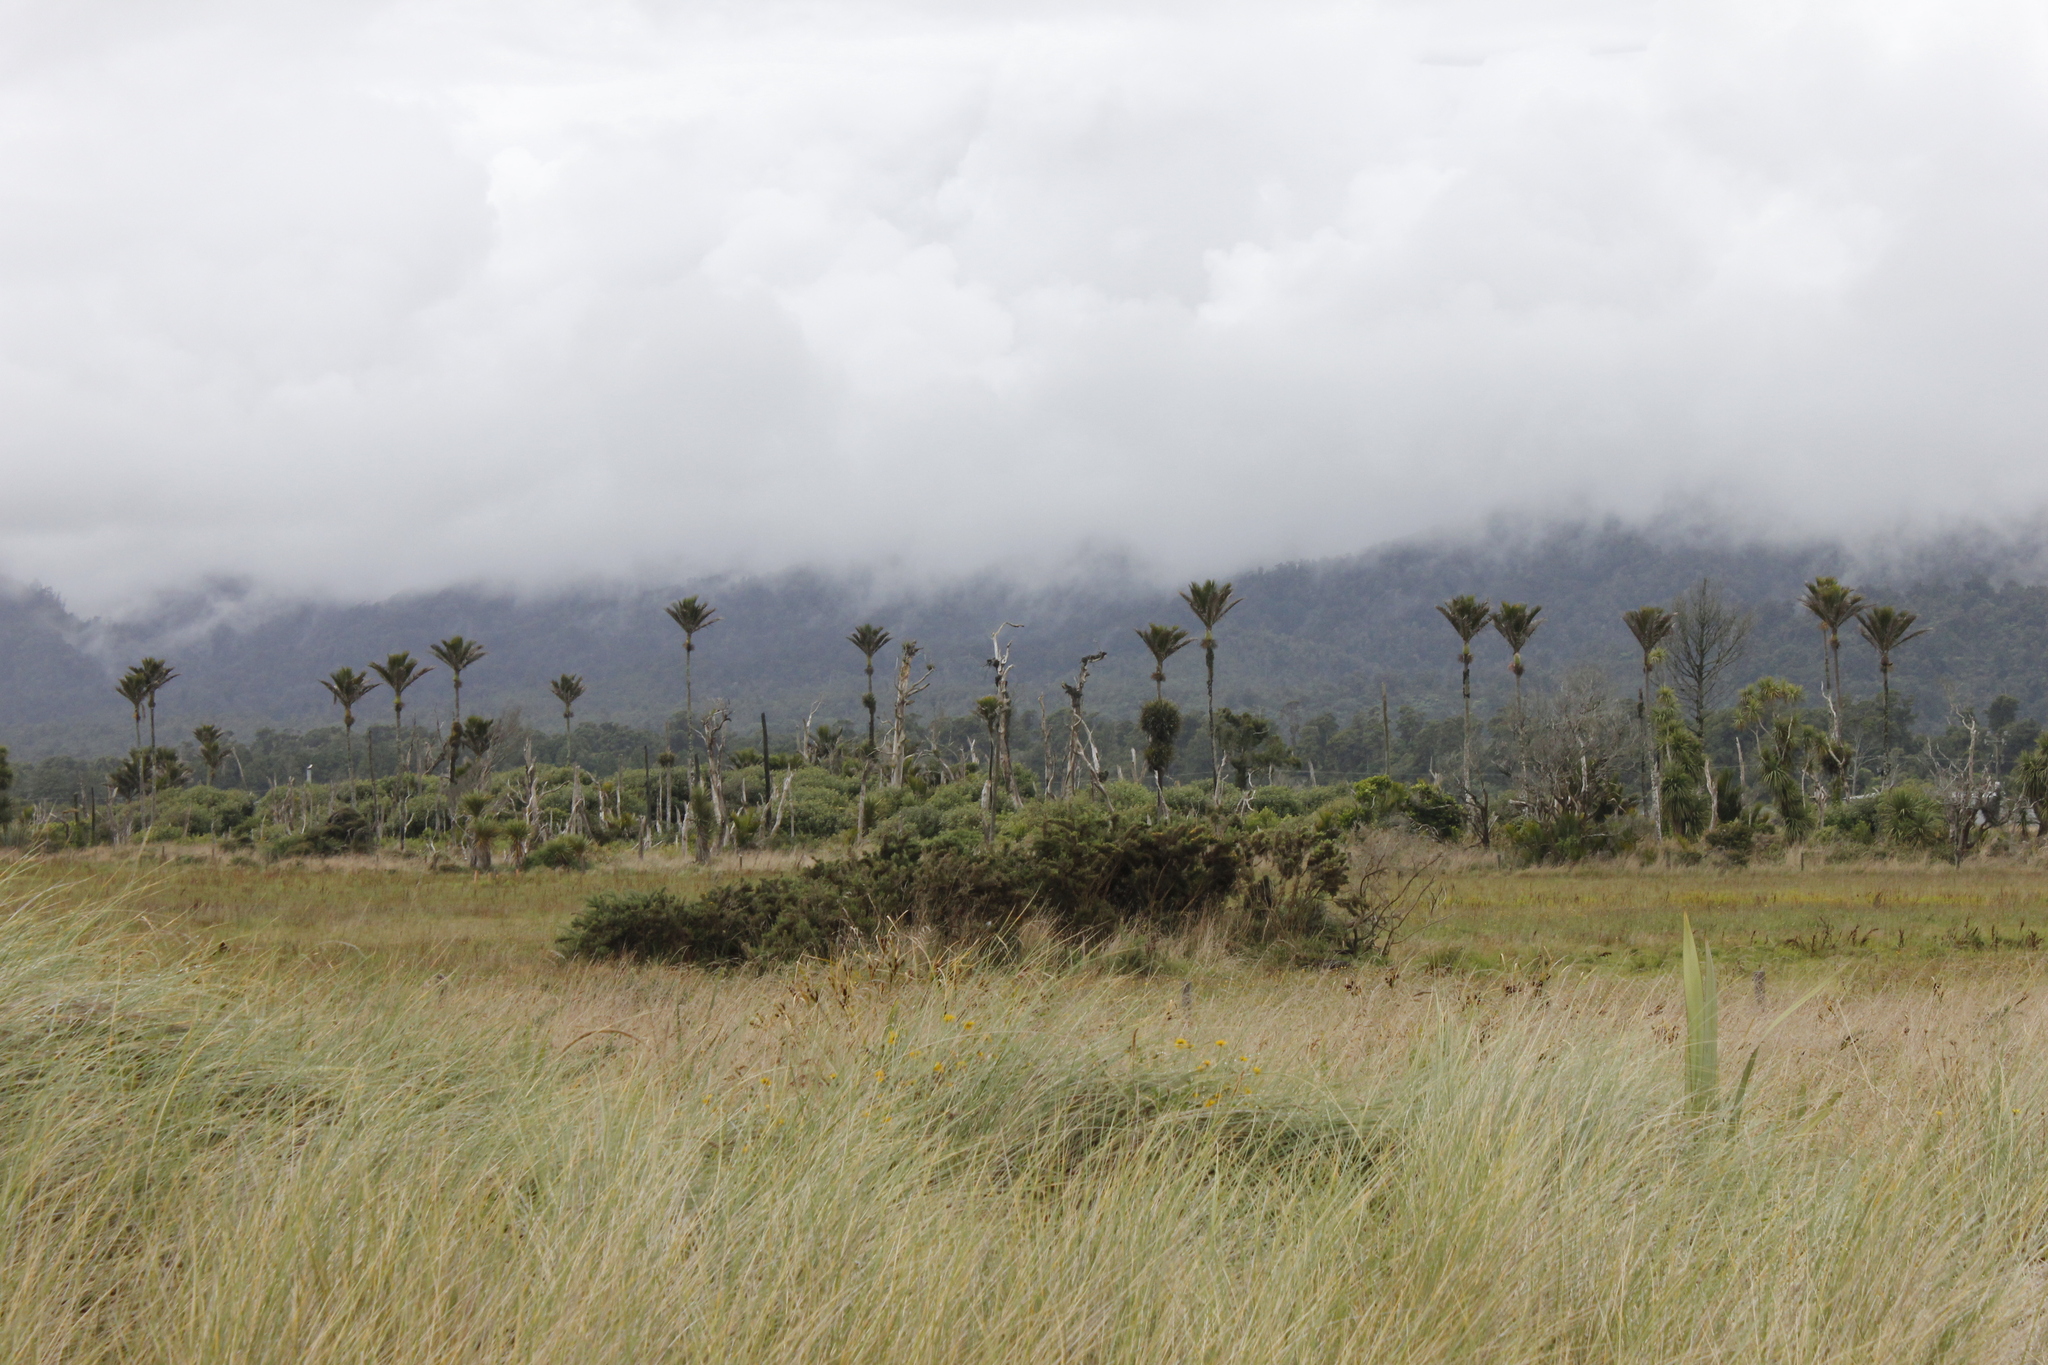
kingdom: Plantae
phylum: Tracheophyta
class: Liliopsida
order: Arecales
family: Arecaceae
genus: Rhopalostylis
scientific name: Rhopalostylis sapida
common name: Feather-duster palm
